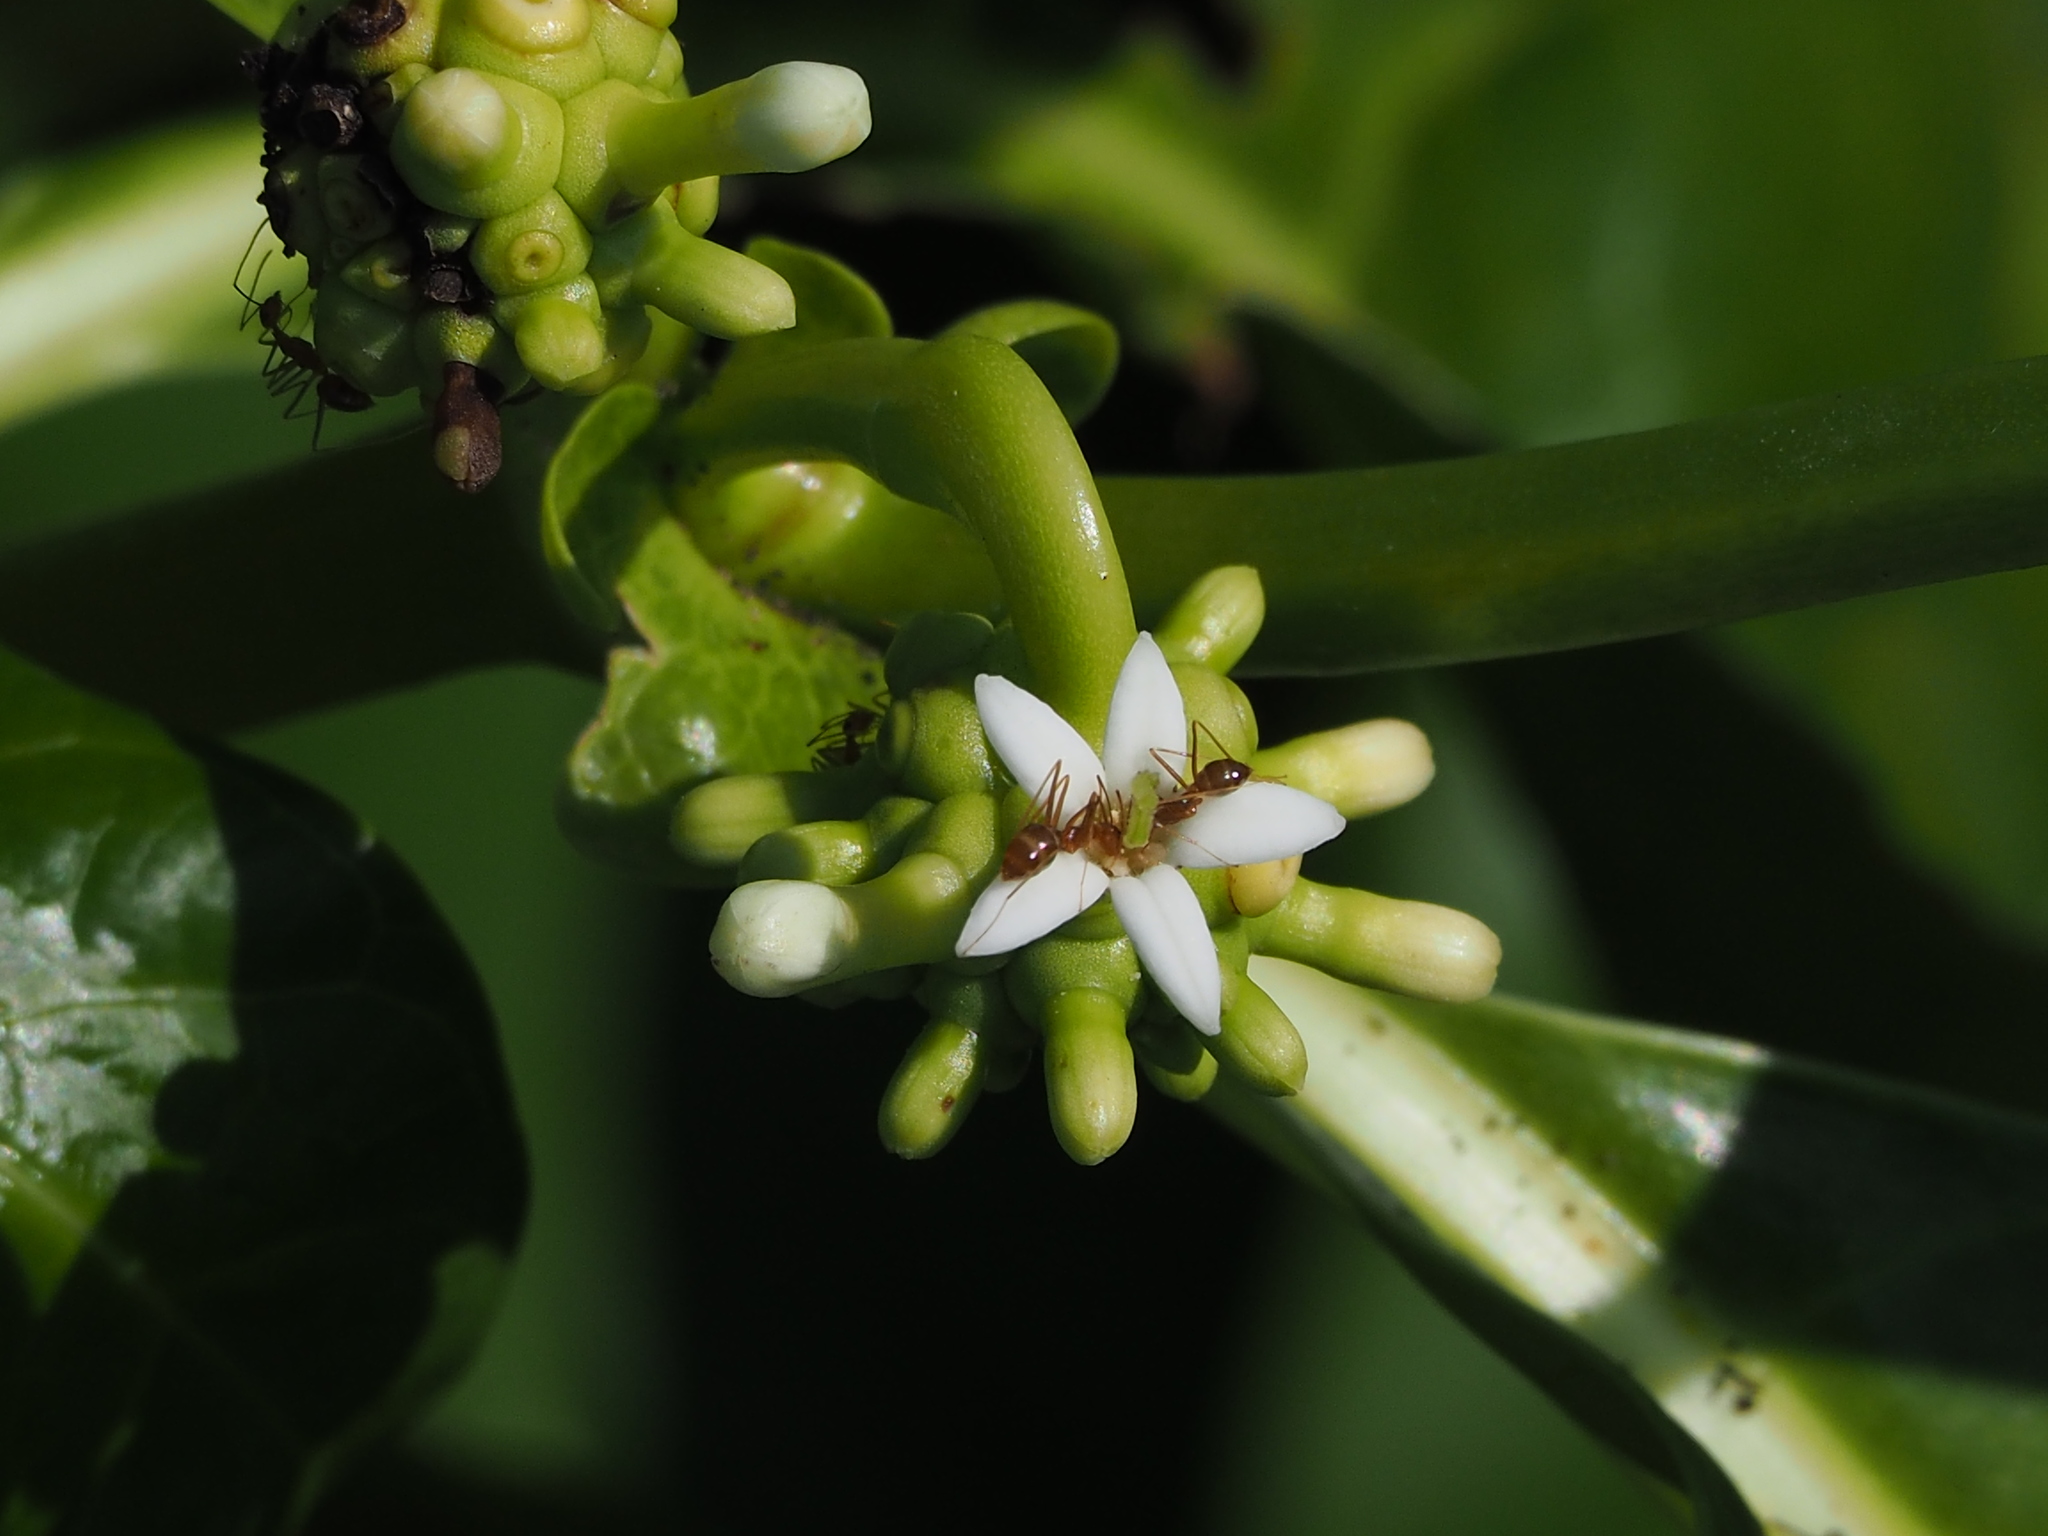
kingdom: Plantae
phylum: Tracheophyta
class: Magnoliopsida
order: Gentianales
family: Rubiaceae
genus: Morinda
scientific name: Morinda citrifolia
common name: Indian-mulberry
